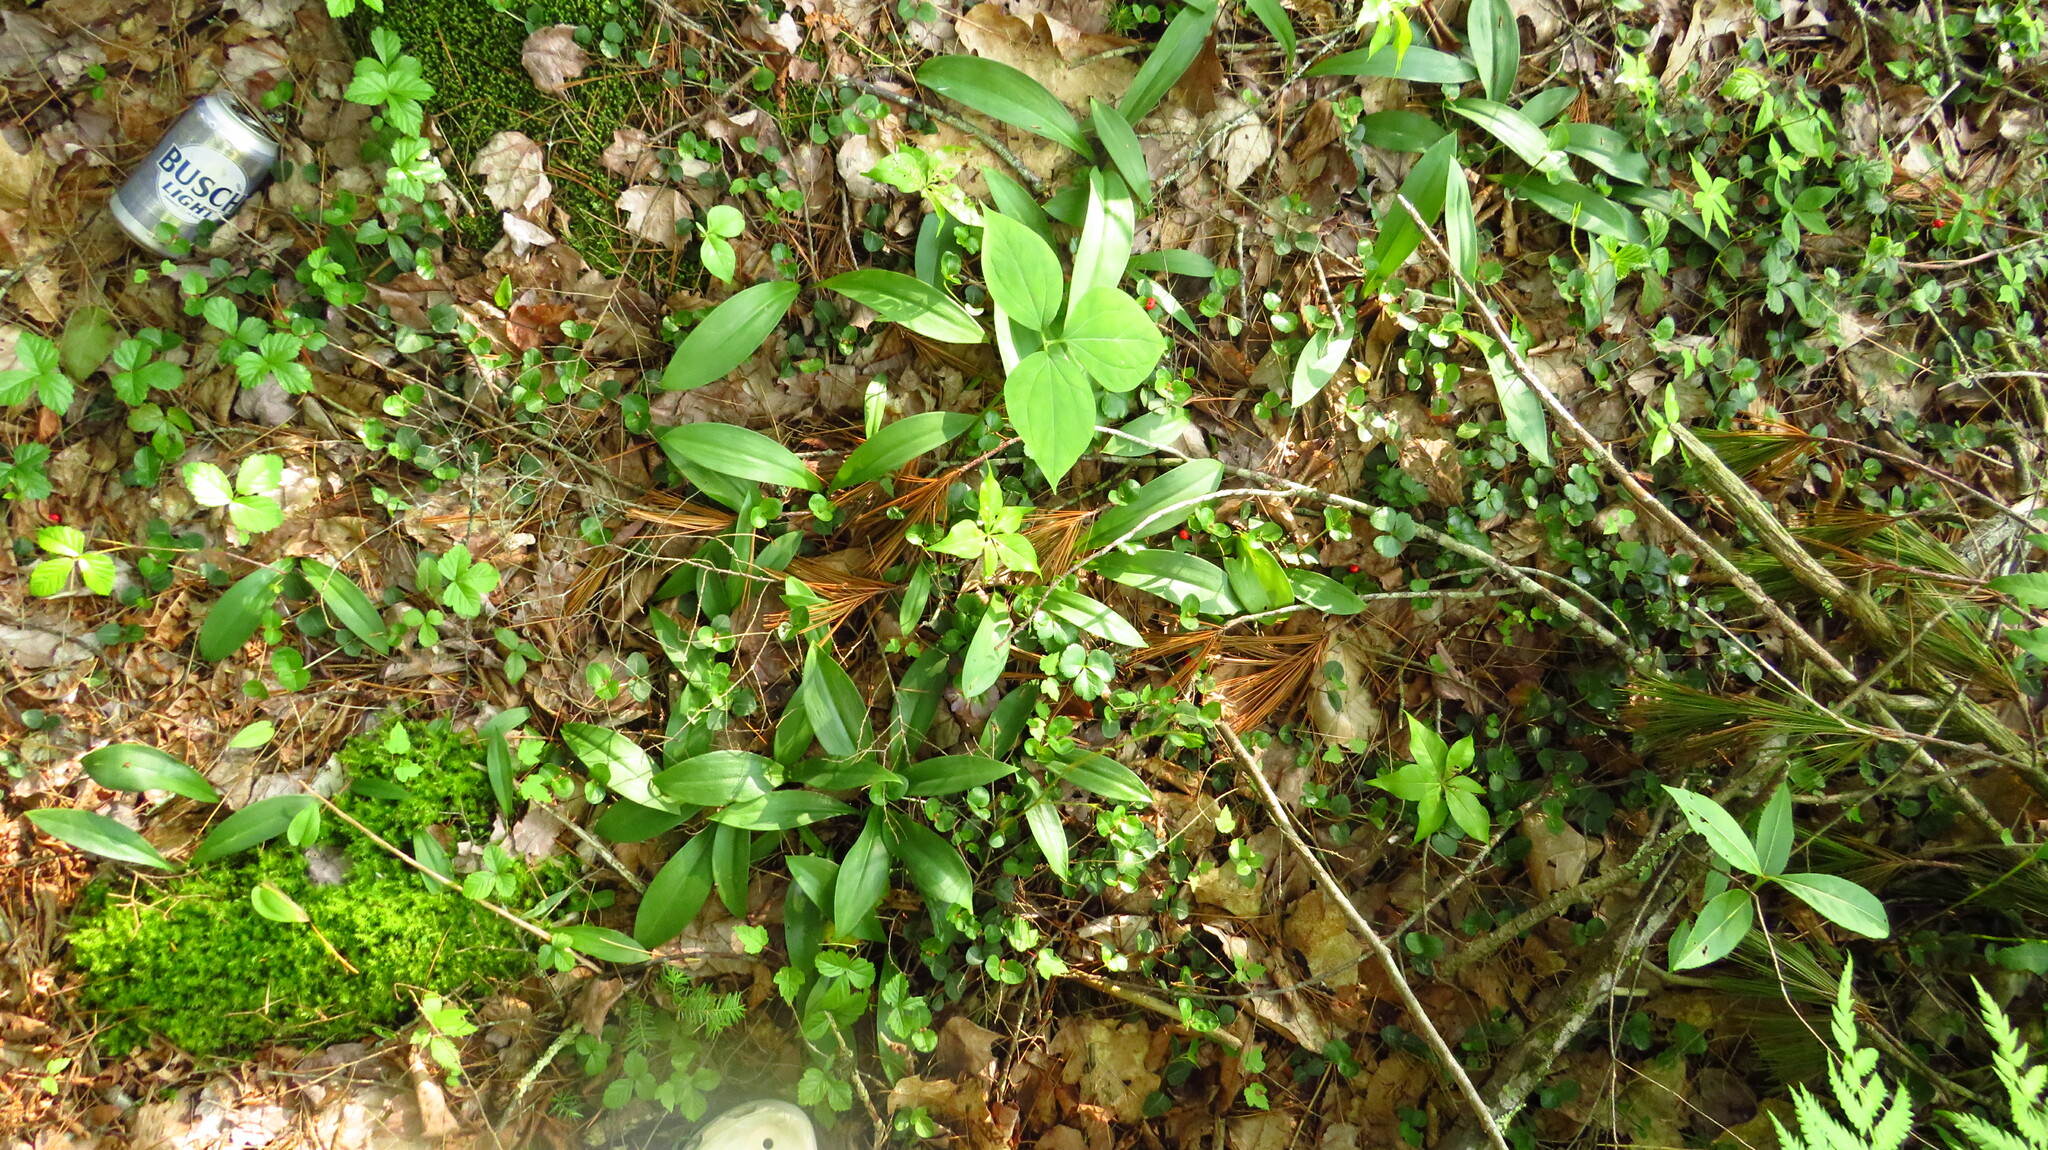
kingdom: Plantae
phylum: Tracheophyta
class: Liliopsida
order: Liliales
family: Liliaceae
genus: Clintonia
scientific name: Clintonia borealis
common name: Yellow clintonia
